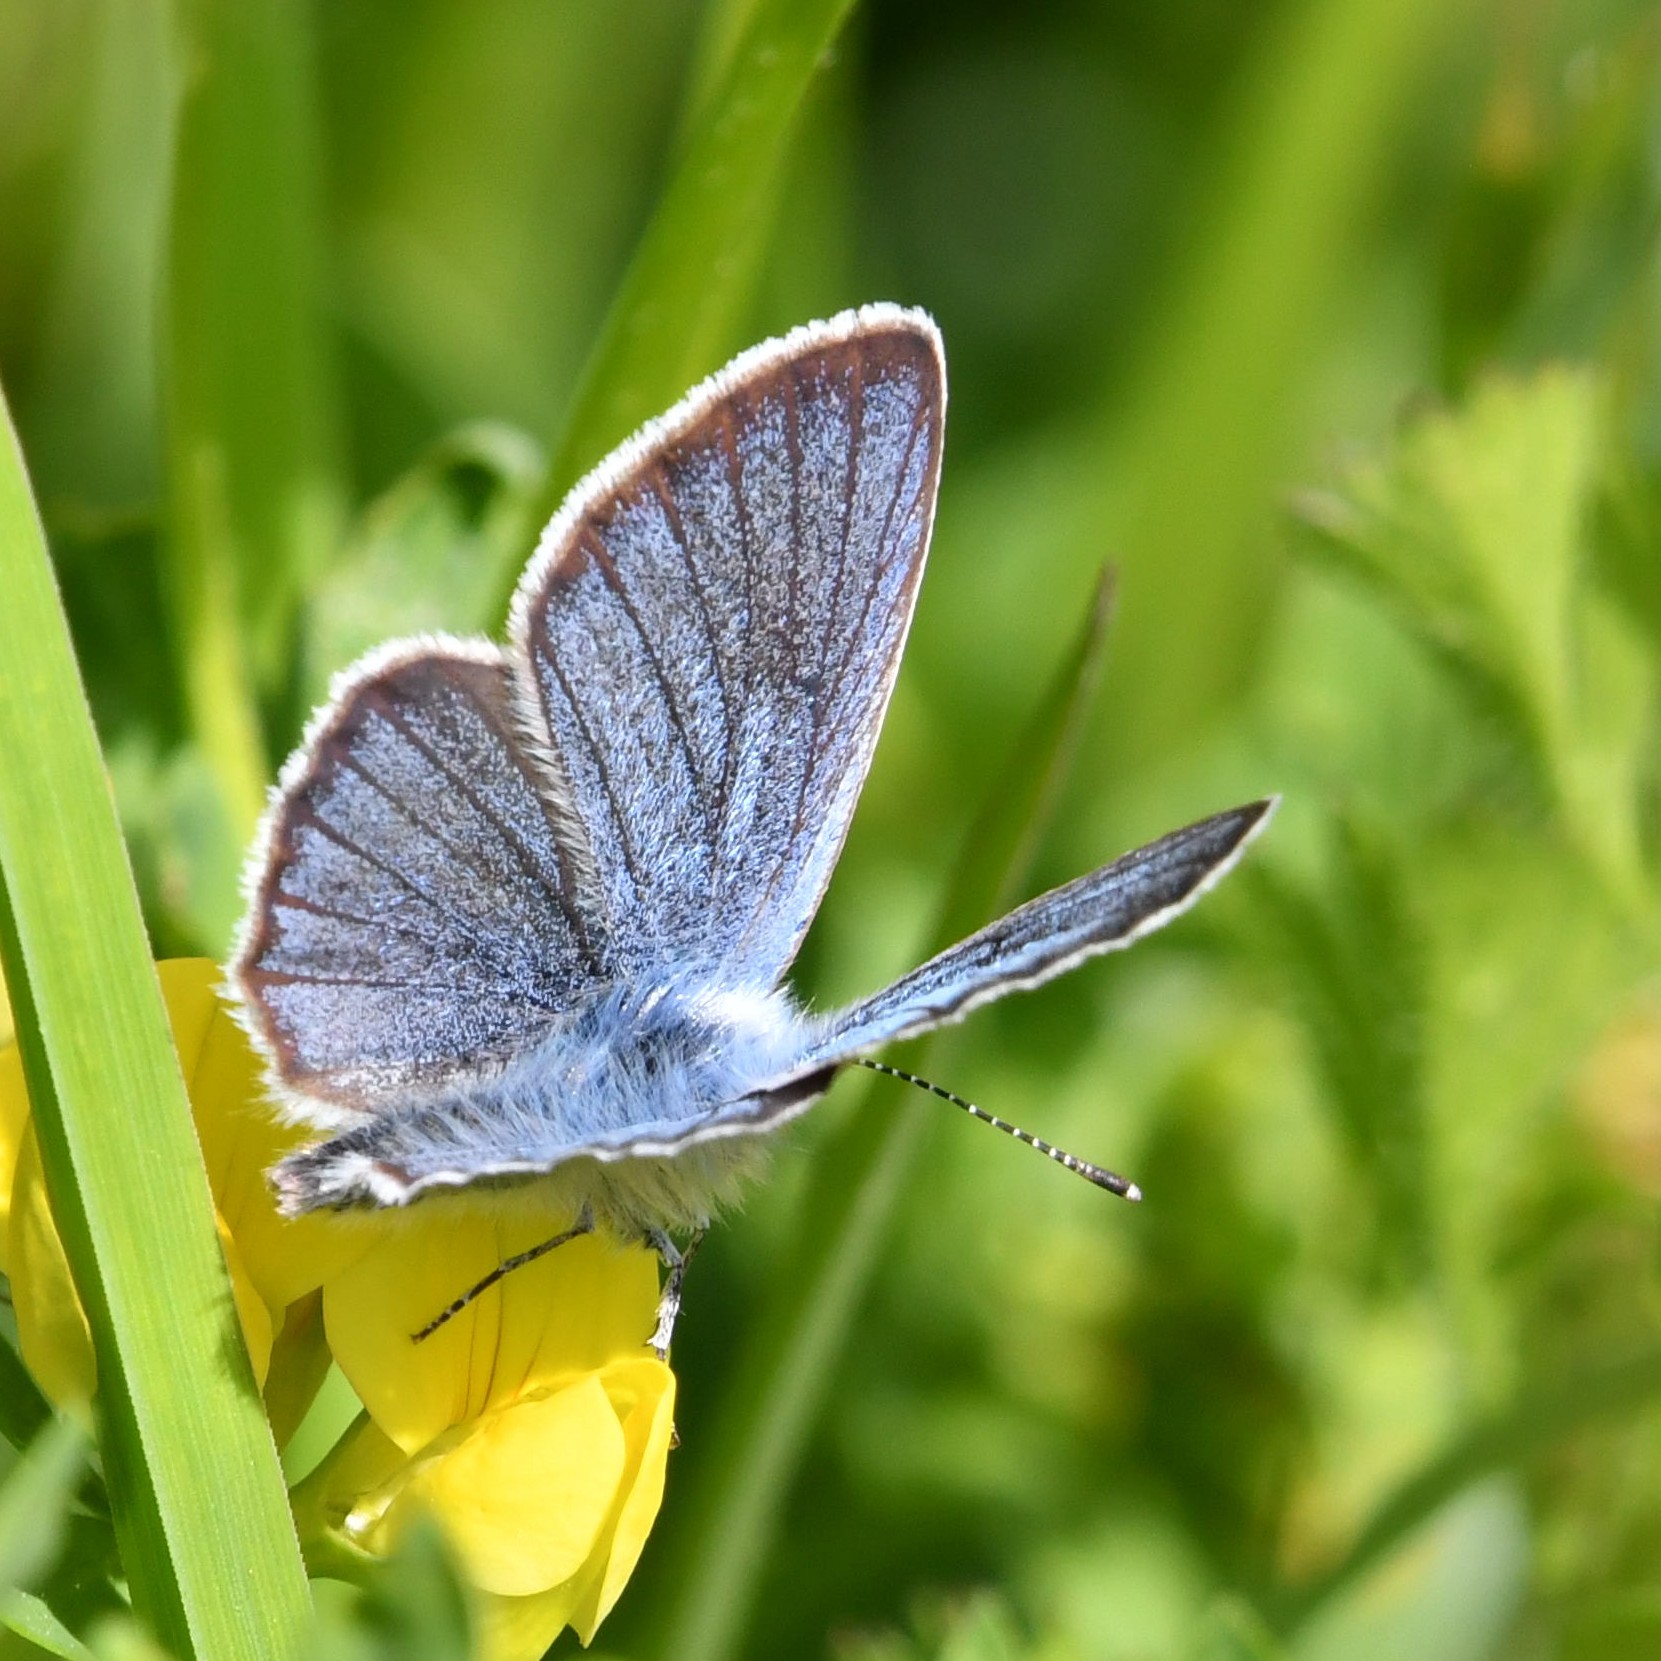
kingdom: Animalia
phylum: Arthropoda
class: Insecta
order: Lepidoptera
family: Lycaenidae
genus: Cyaniris
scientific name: Cyaniris semiargus
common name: Mazarine blue
